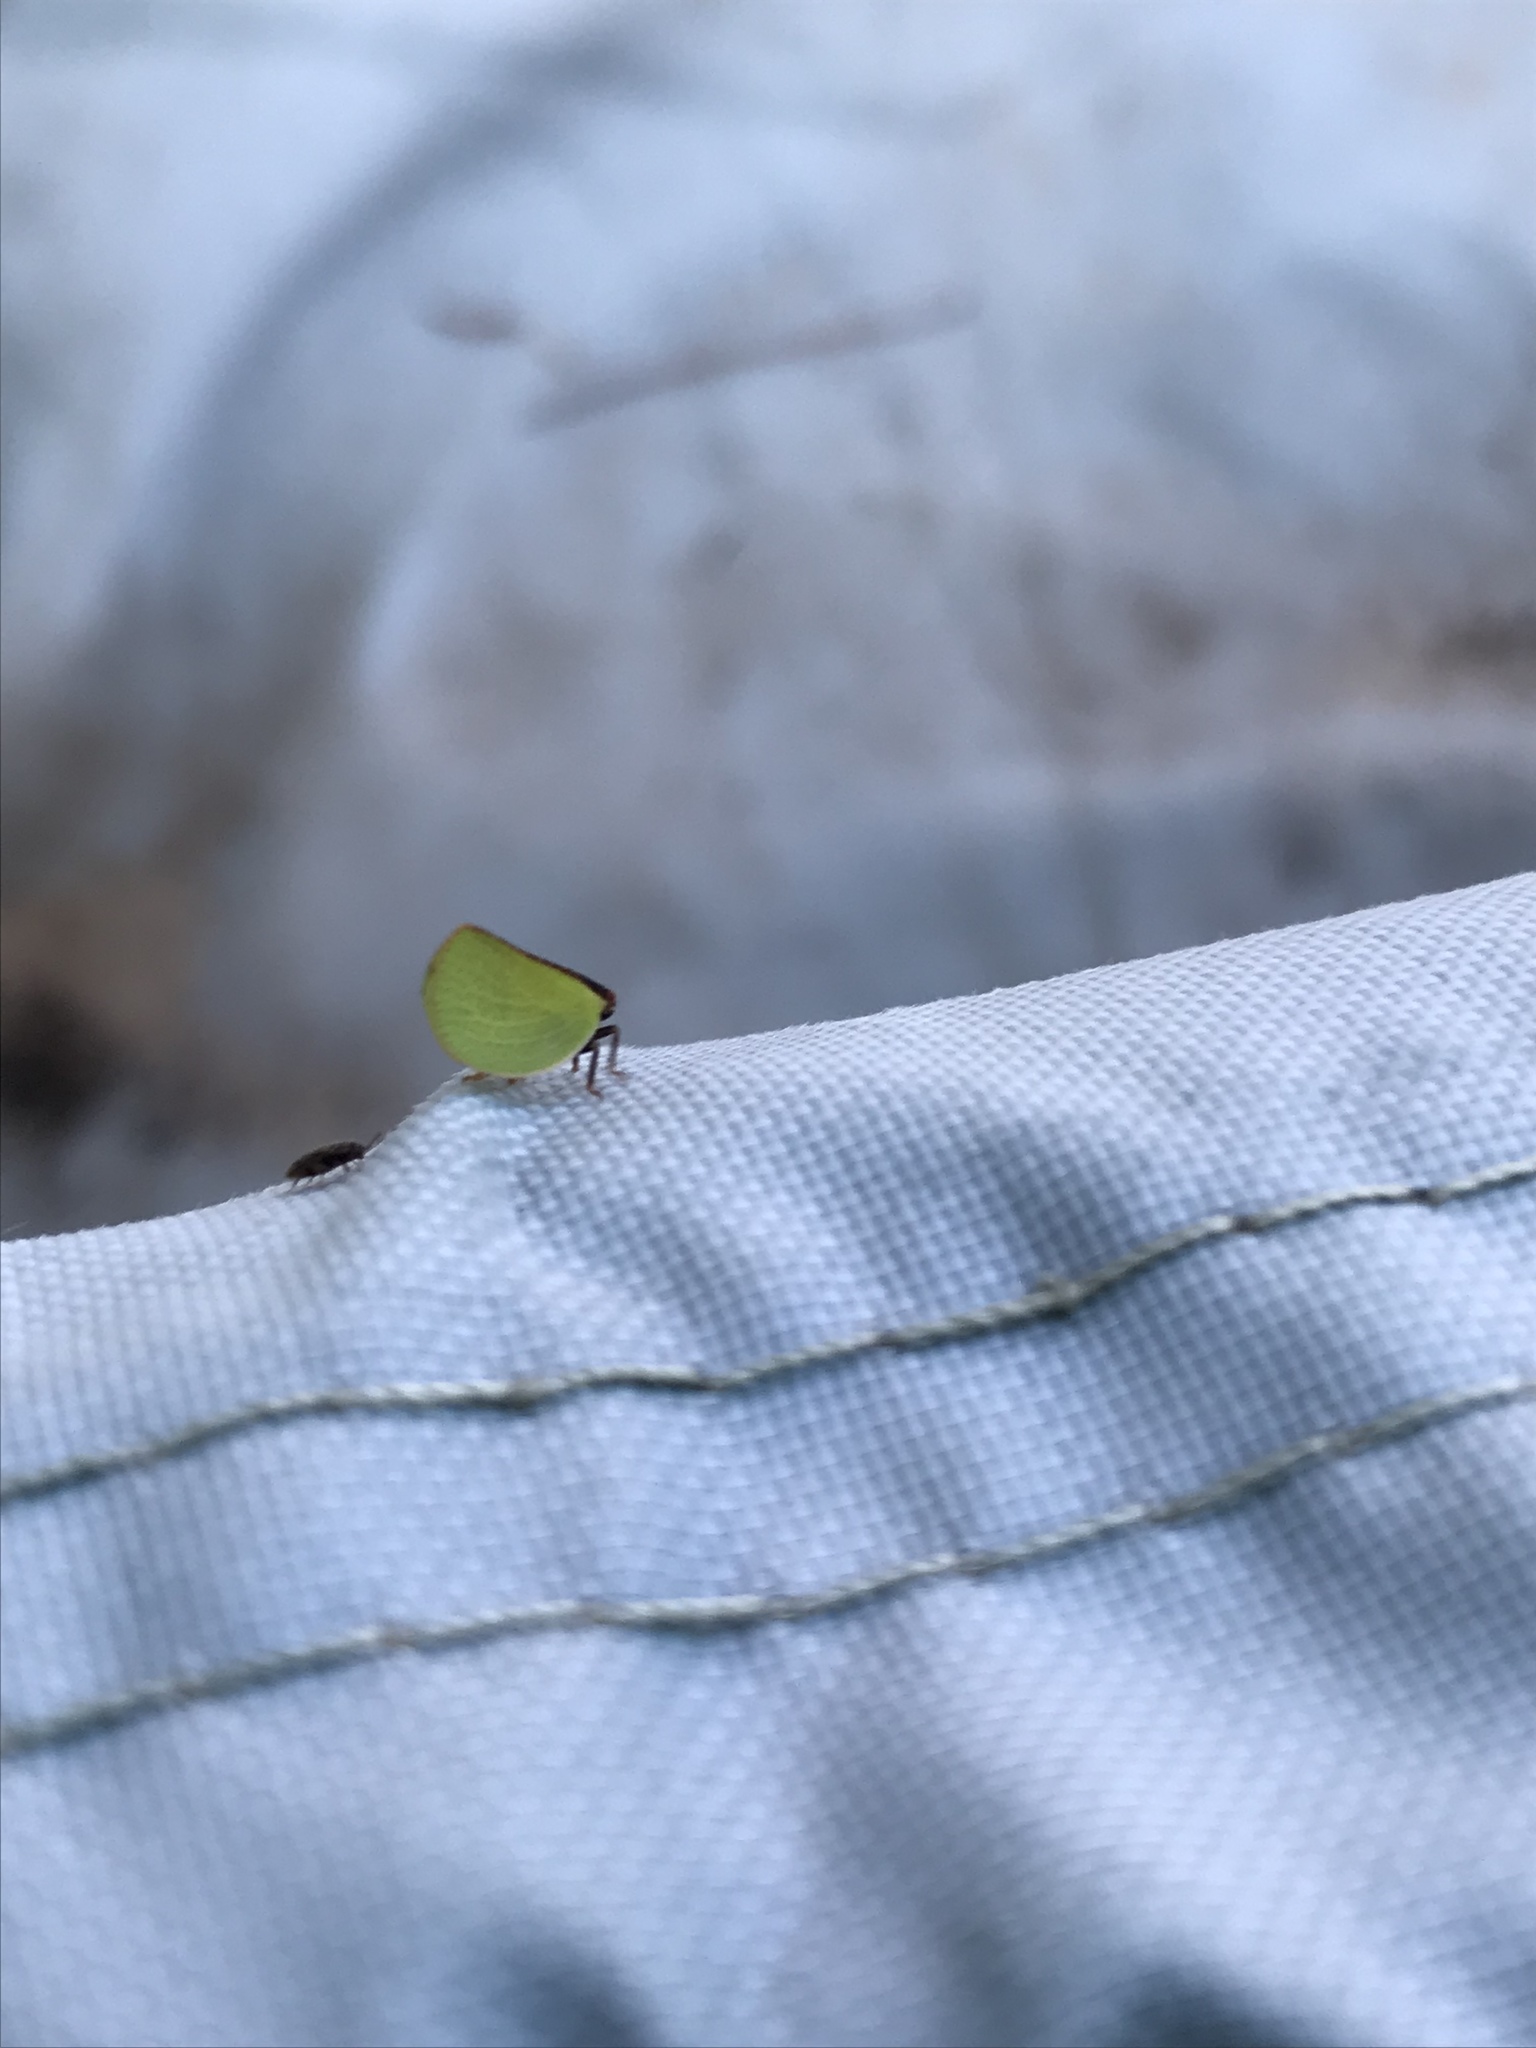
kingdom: Animalia
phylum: Arthropoda
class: Insecta
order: Hemiptera
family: Acanaloniidae
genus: Acanalonia
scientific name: Acanalonia bivittata
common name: Two-striped planthopper
